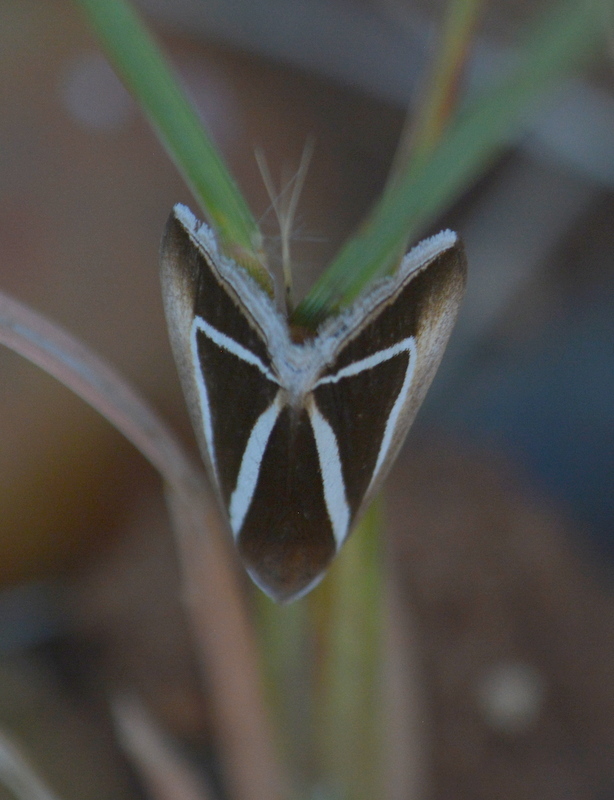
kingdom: Animalia
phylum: Arthropoda
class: Insecta
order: Lepidoptera
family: Erebidae
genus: Chalciope
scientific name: Chalciope delta
